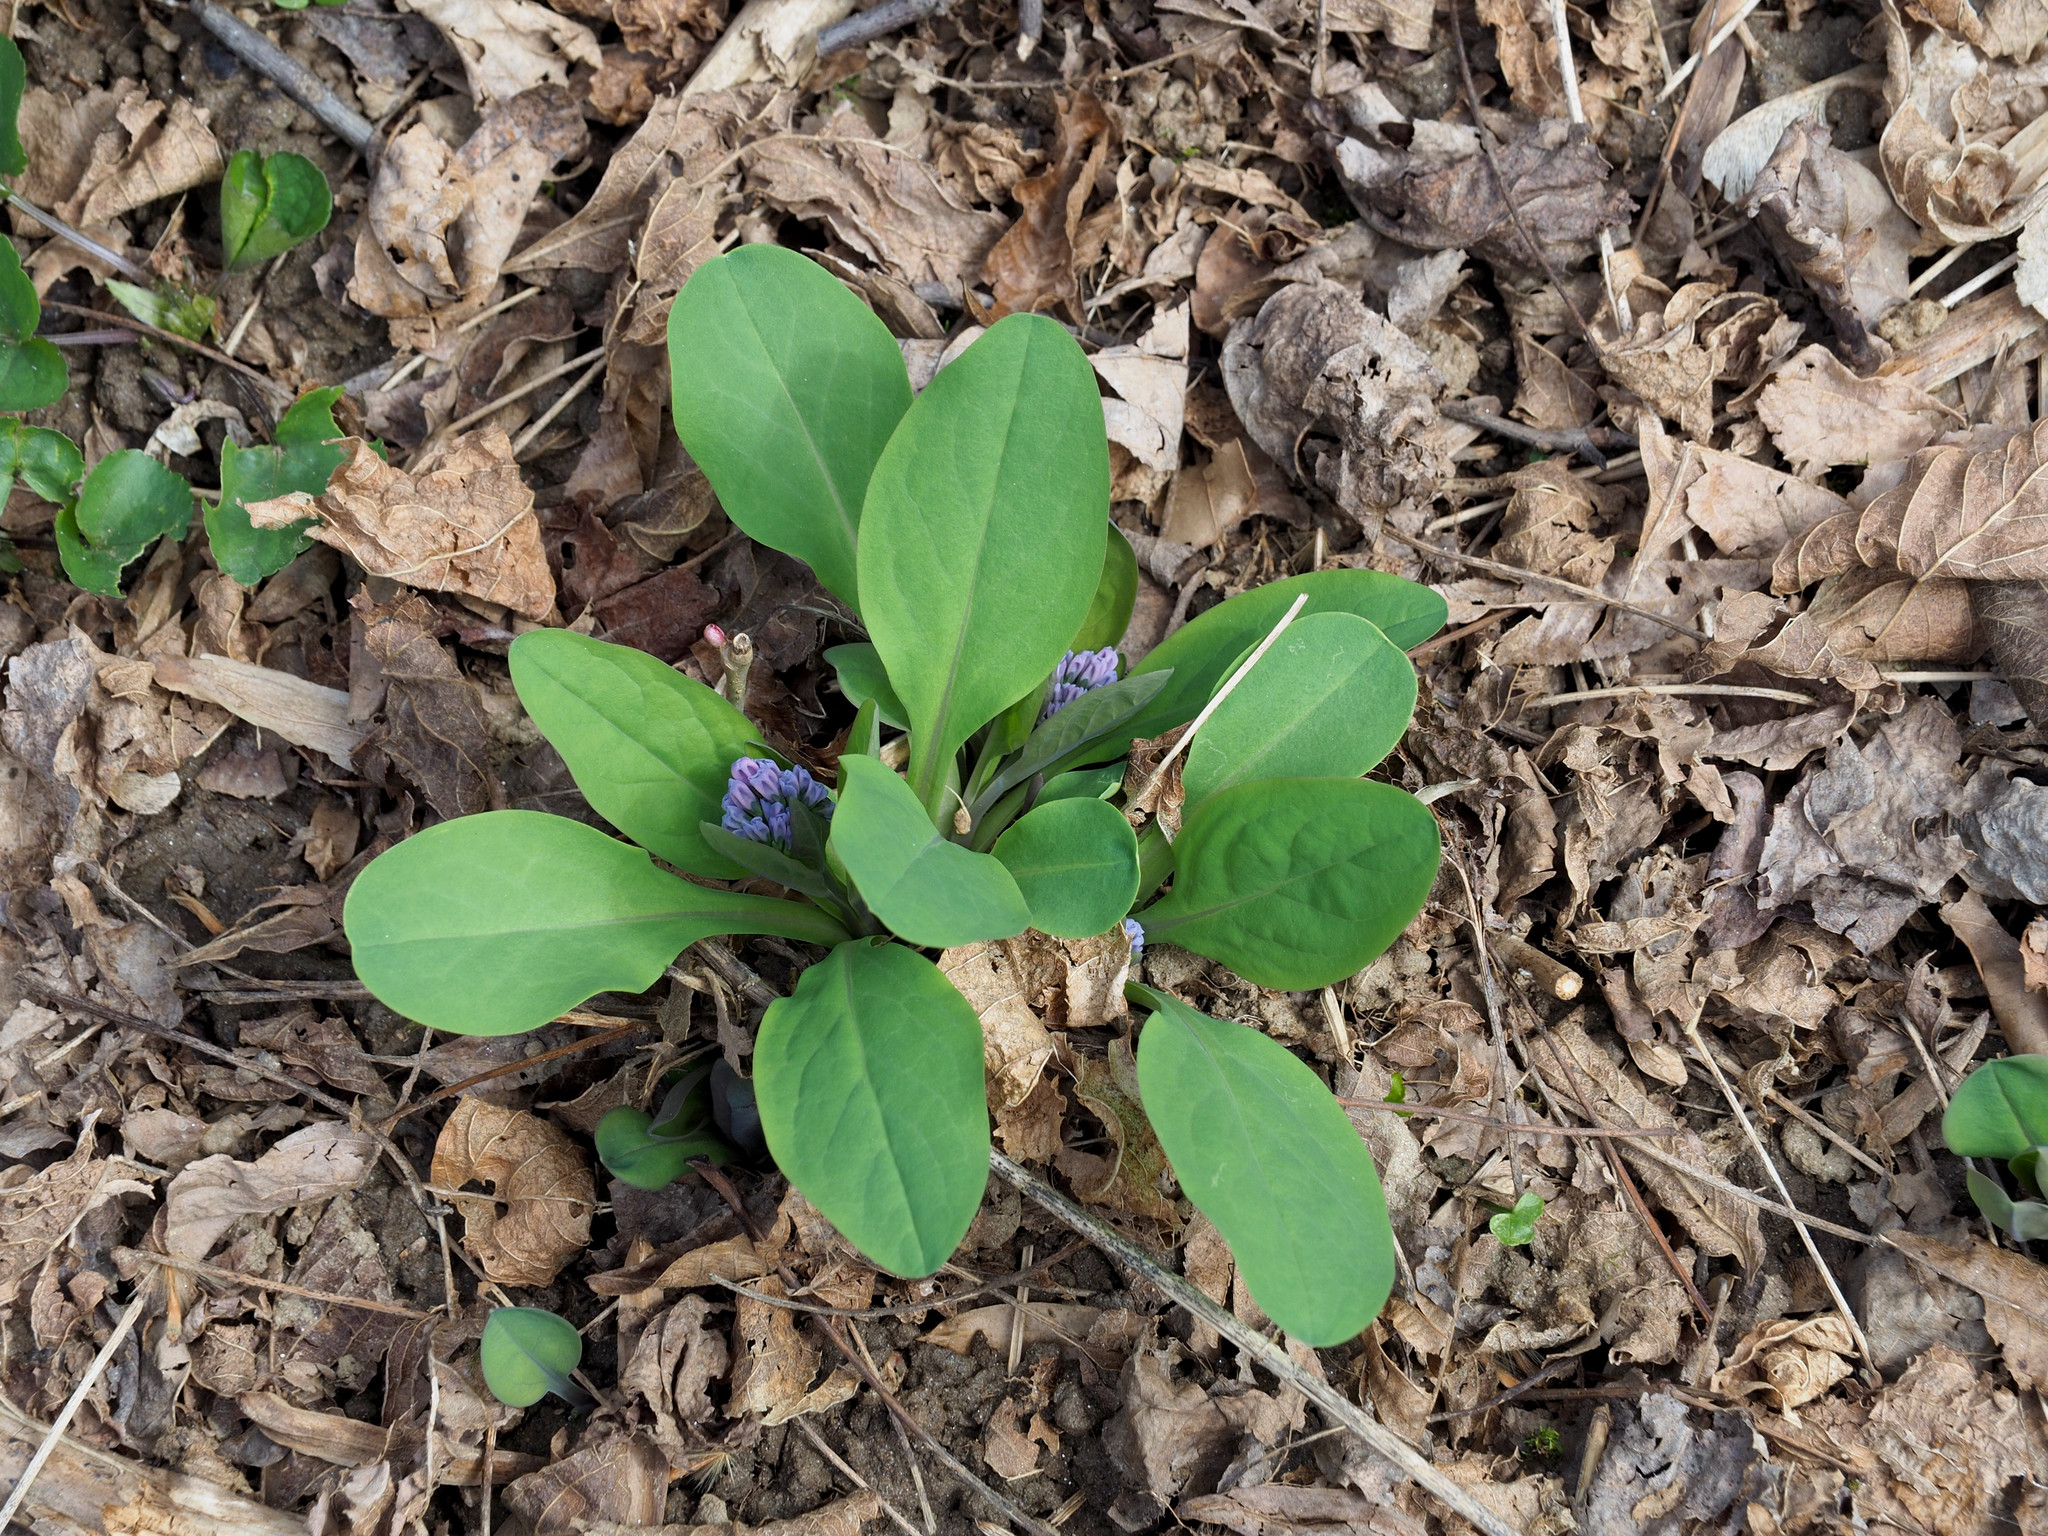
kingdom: Plantae
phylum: Tracheophyta
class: Magnoliopsida
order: Boraginales
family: Boraginaceae
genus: Mertensia
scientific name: Mertensia virginica
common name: Virginia bluebells
